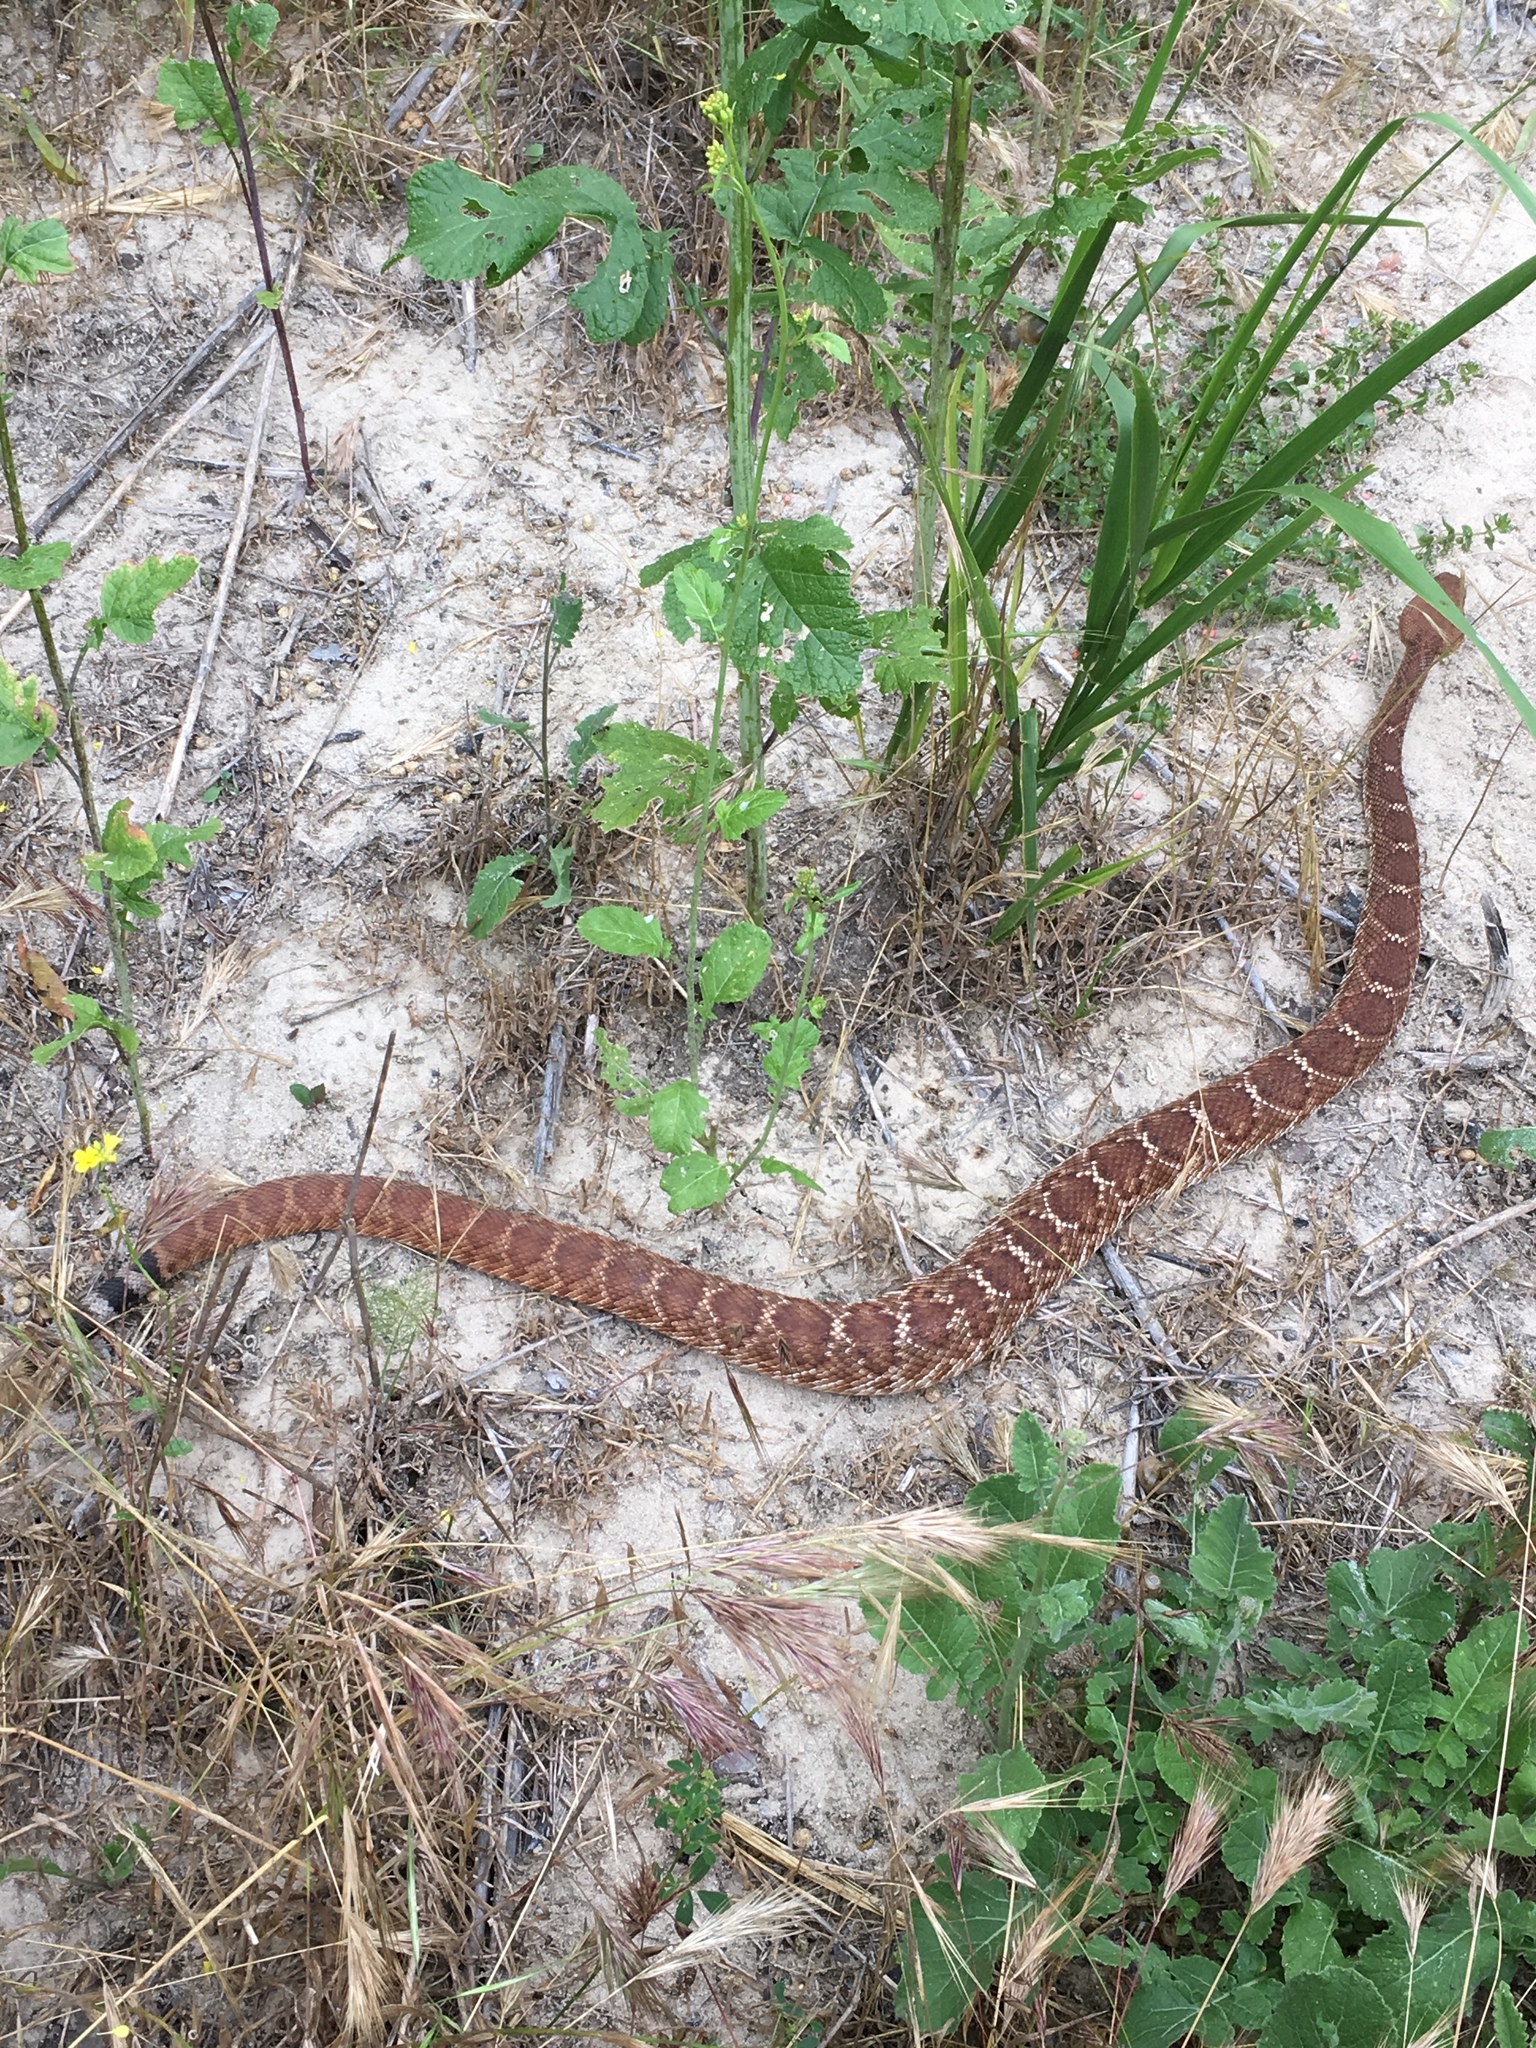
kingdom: Animalia
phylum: Chordata
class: Squamata
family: Viperidae
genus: Crotalus
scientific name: Crotalus ruber
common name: Red diamond rattlesnake
